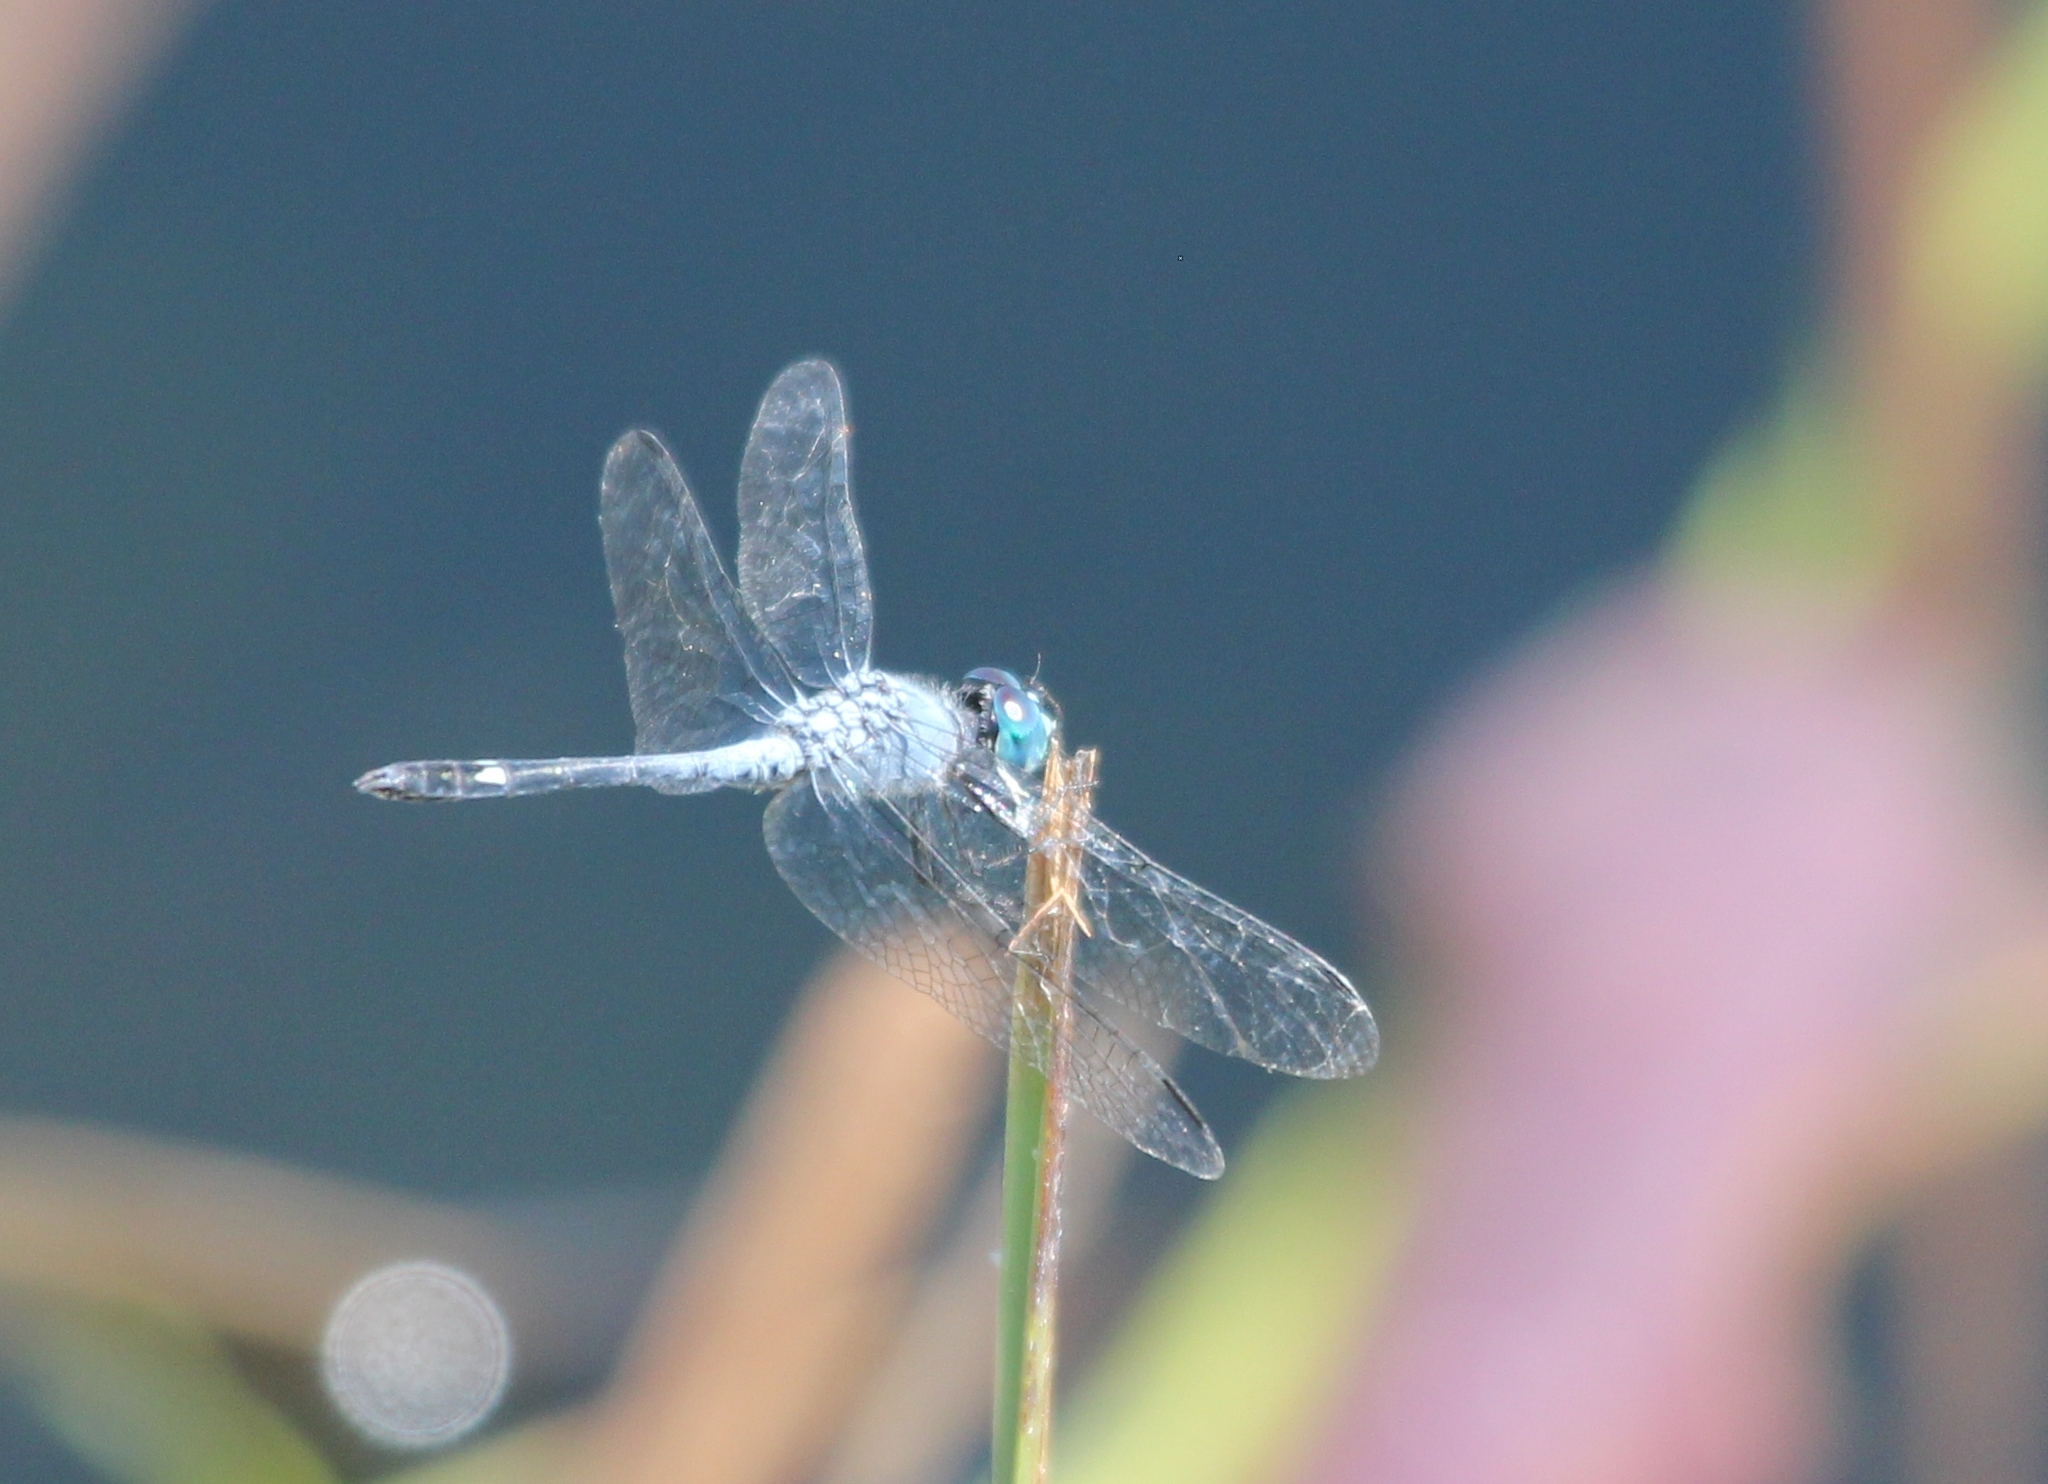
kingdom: Animalia
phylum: Arthropoda
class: Insecta
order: Odonata
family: Libellulidae
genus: Micrathyria
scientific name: Micrathyria aequalis
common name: Spot-tailed dasher
